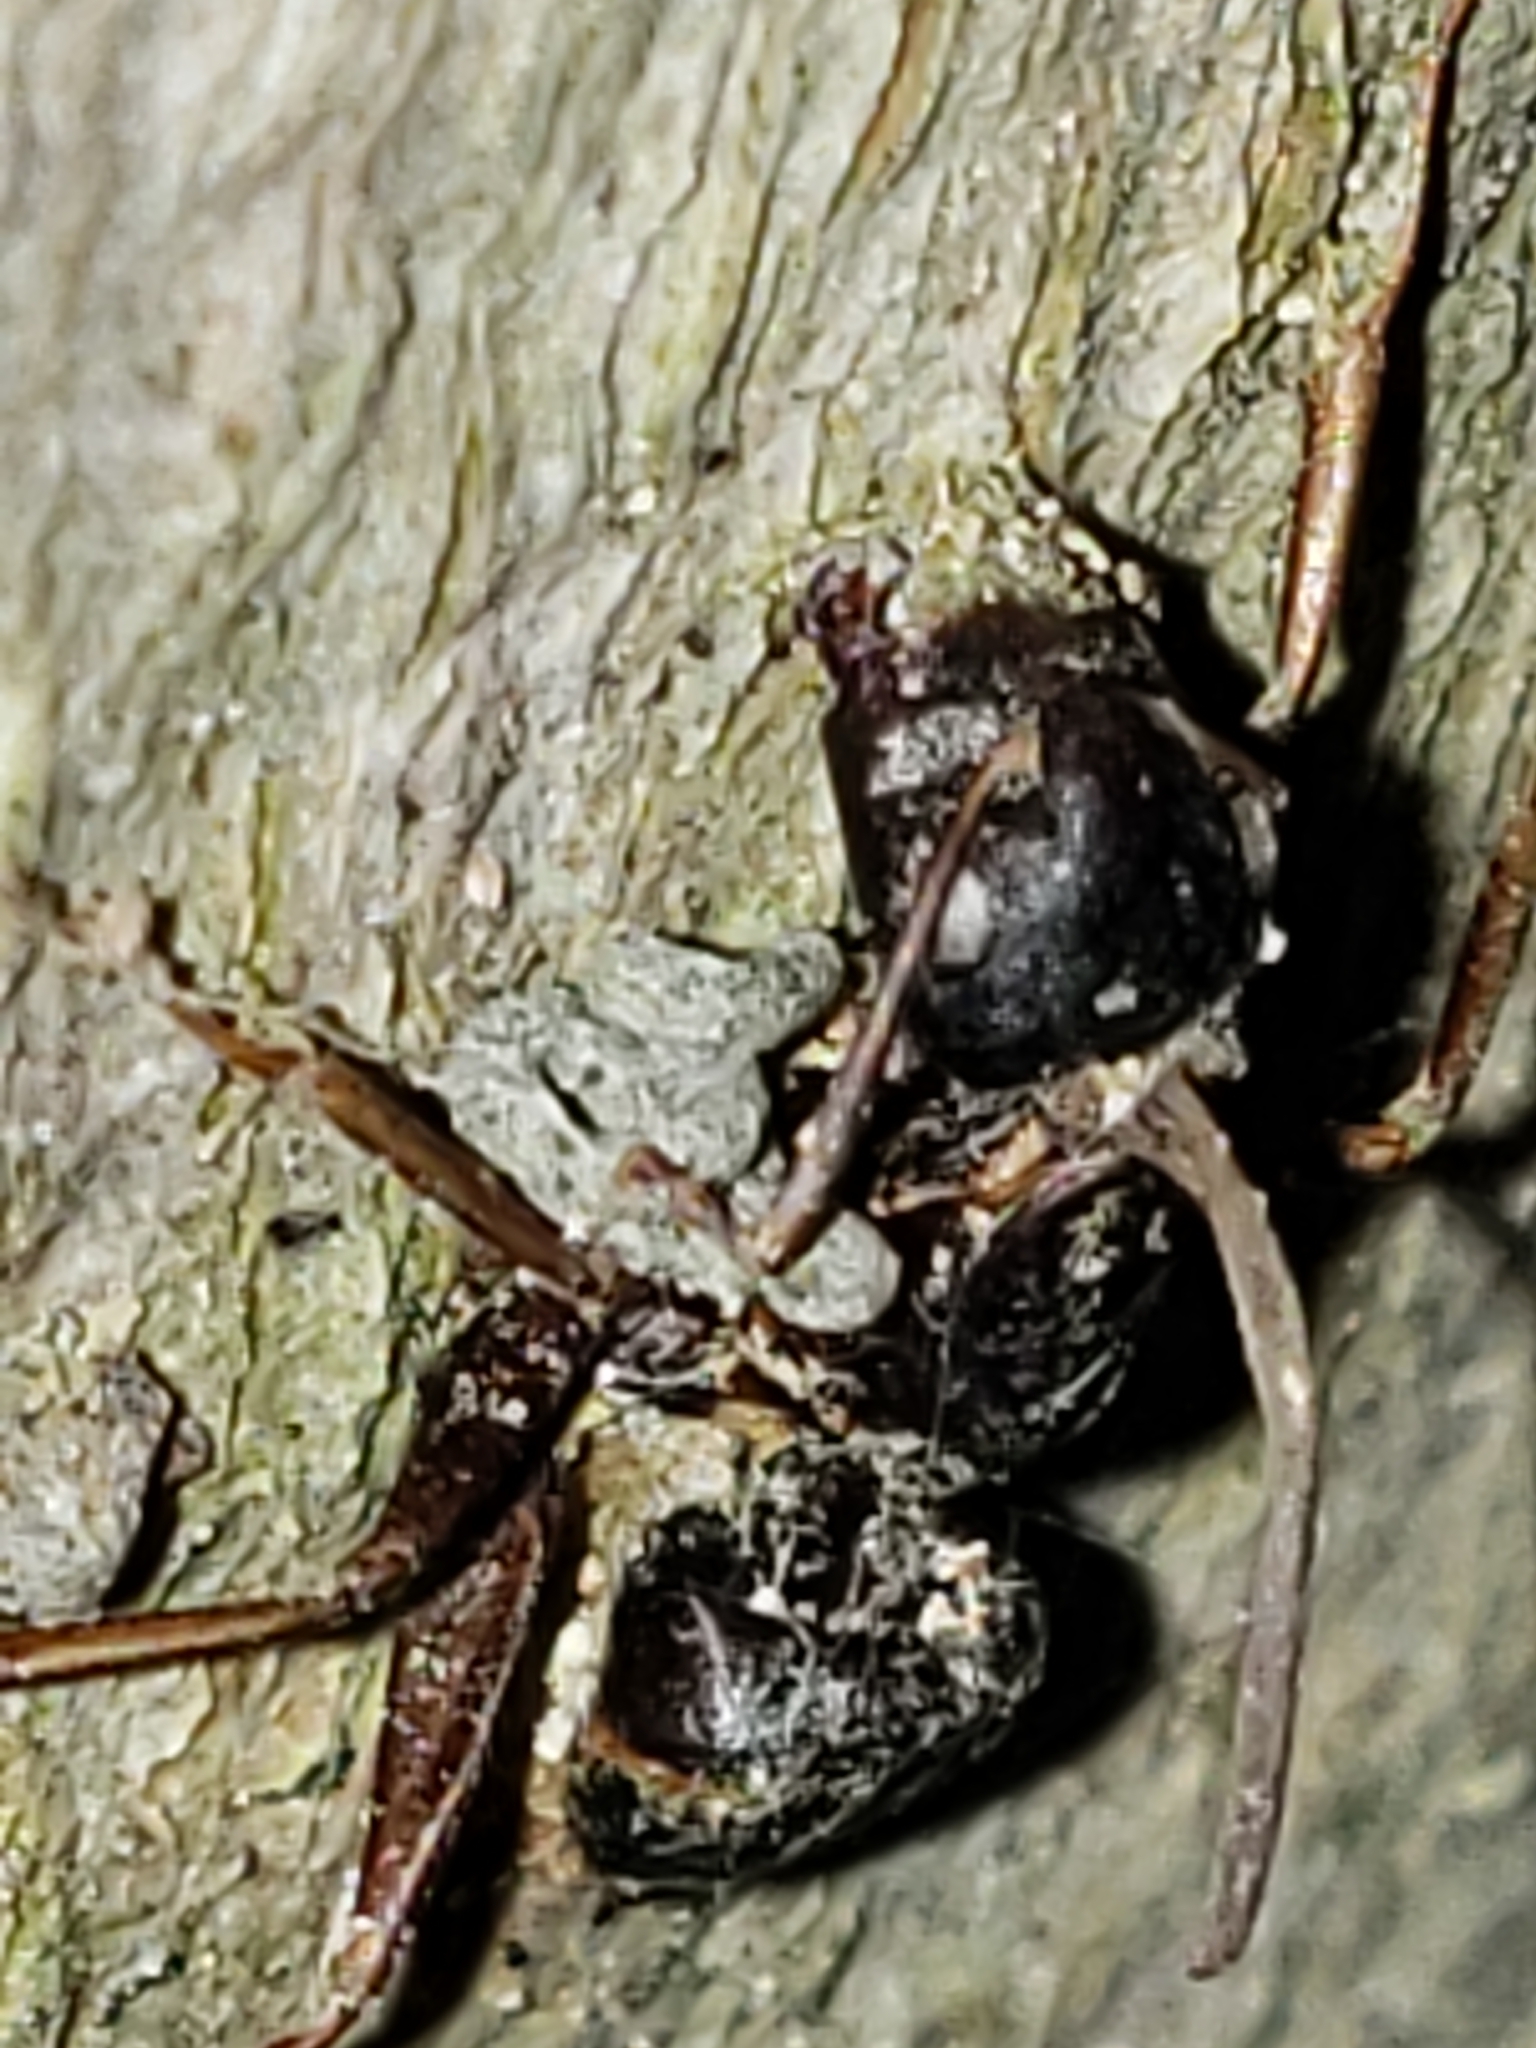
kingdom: Fungi
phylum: Ascomycota
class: Sordariomycetes
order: Hypocreales
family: Ophiocordycipitaceae
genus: Ophiocordyceps
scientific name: Ophiocordyceps kimflemingiae
